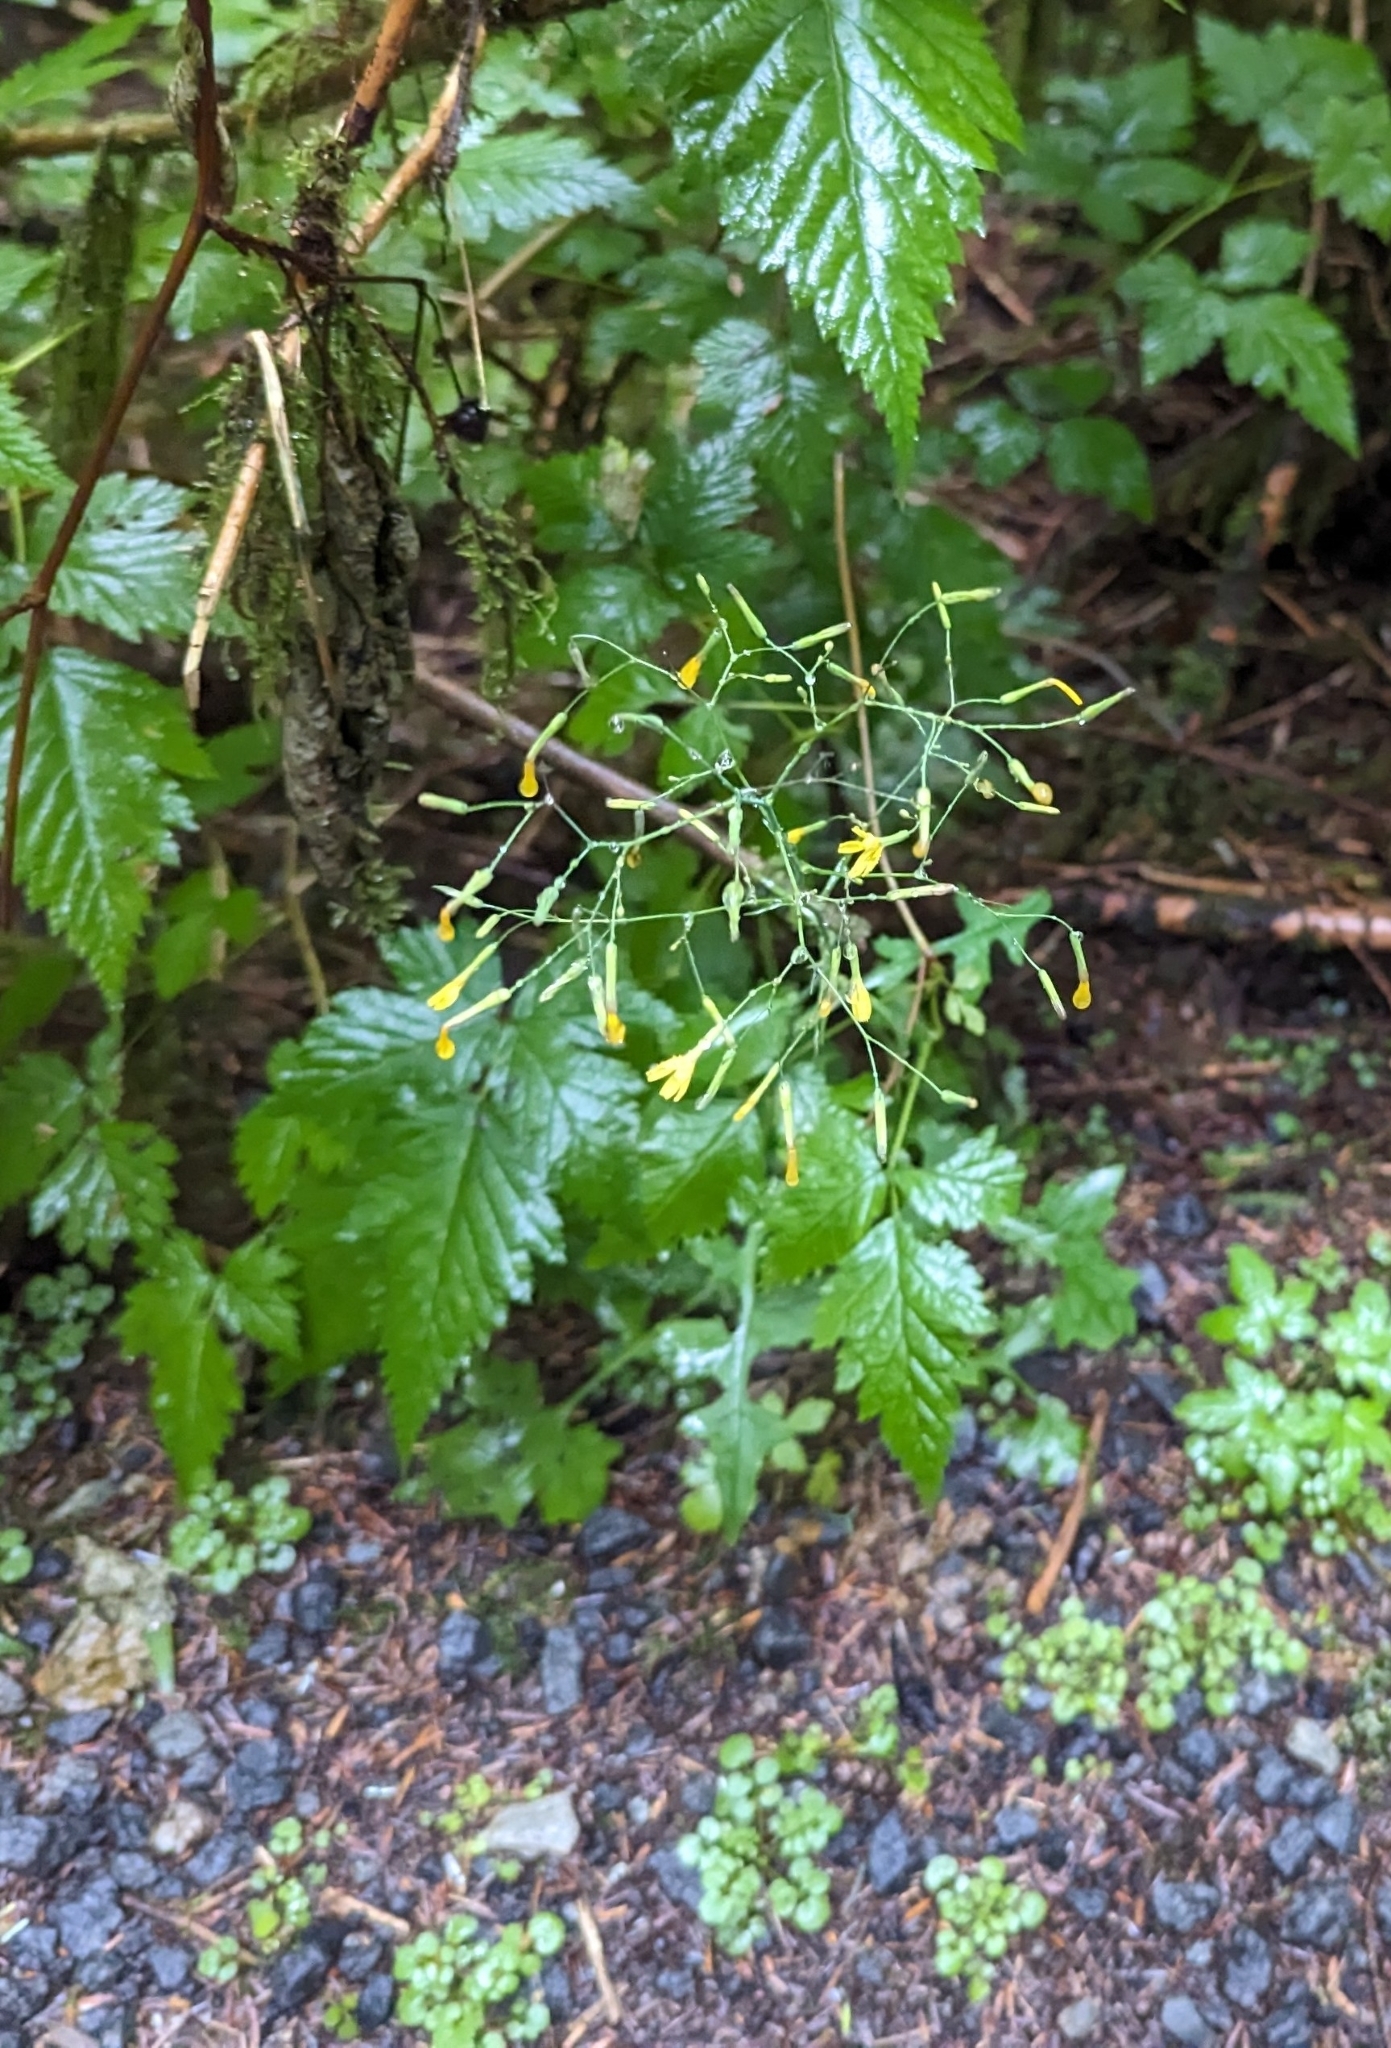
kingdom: Plantae
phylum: Tracheophyta
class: Magnoliopsida
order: Asterales
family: Asteraceae
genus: Mycelis
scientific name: Mycelis muralis
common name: Wall lettuce
